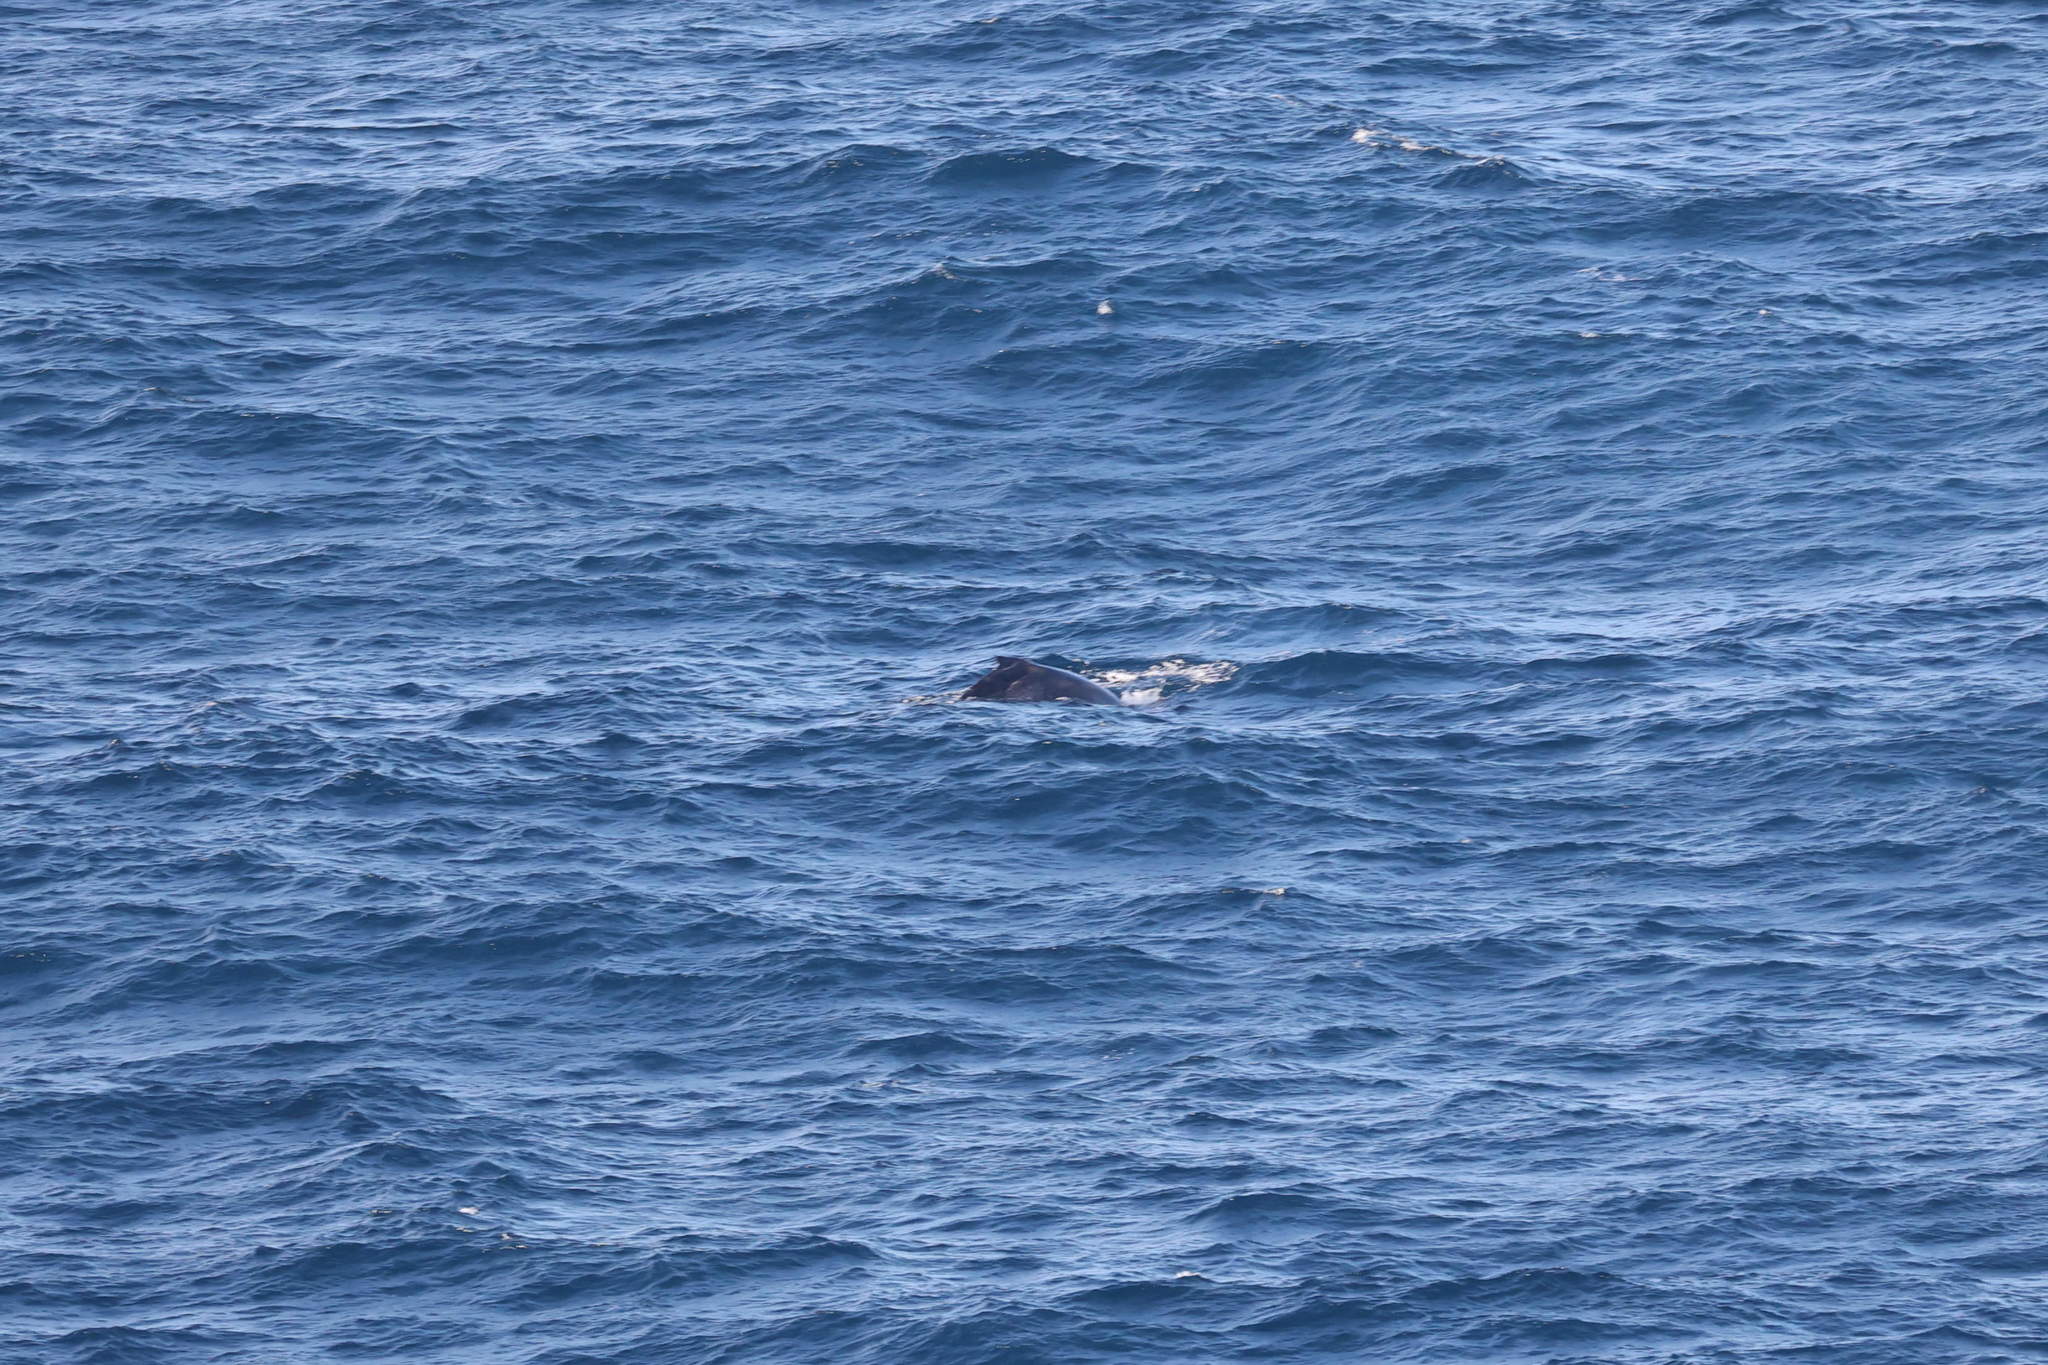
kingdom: Animalia
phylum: Chordata
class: Mammalia
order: Cetacea
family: Balaenopteridae
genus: Megaptera
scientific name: Megaptera novaeangliae
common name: Humpback whale
